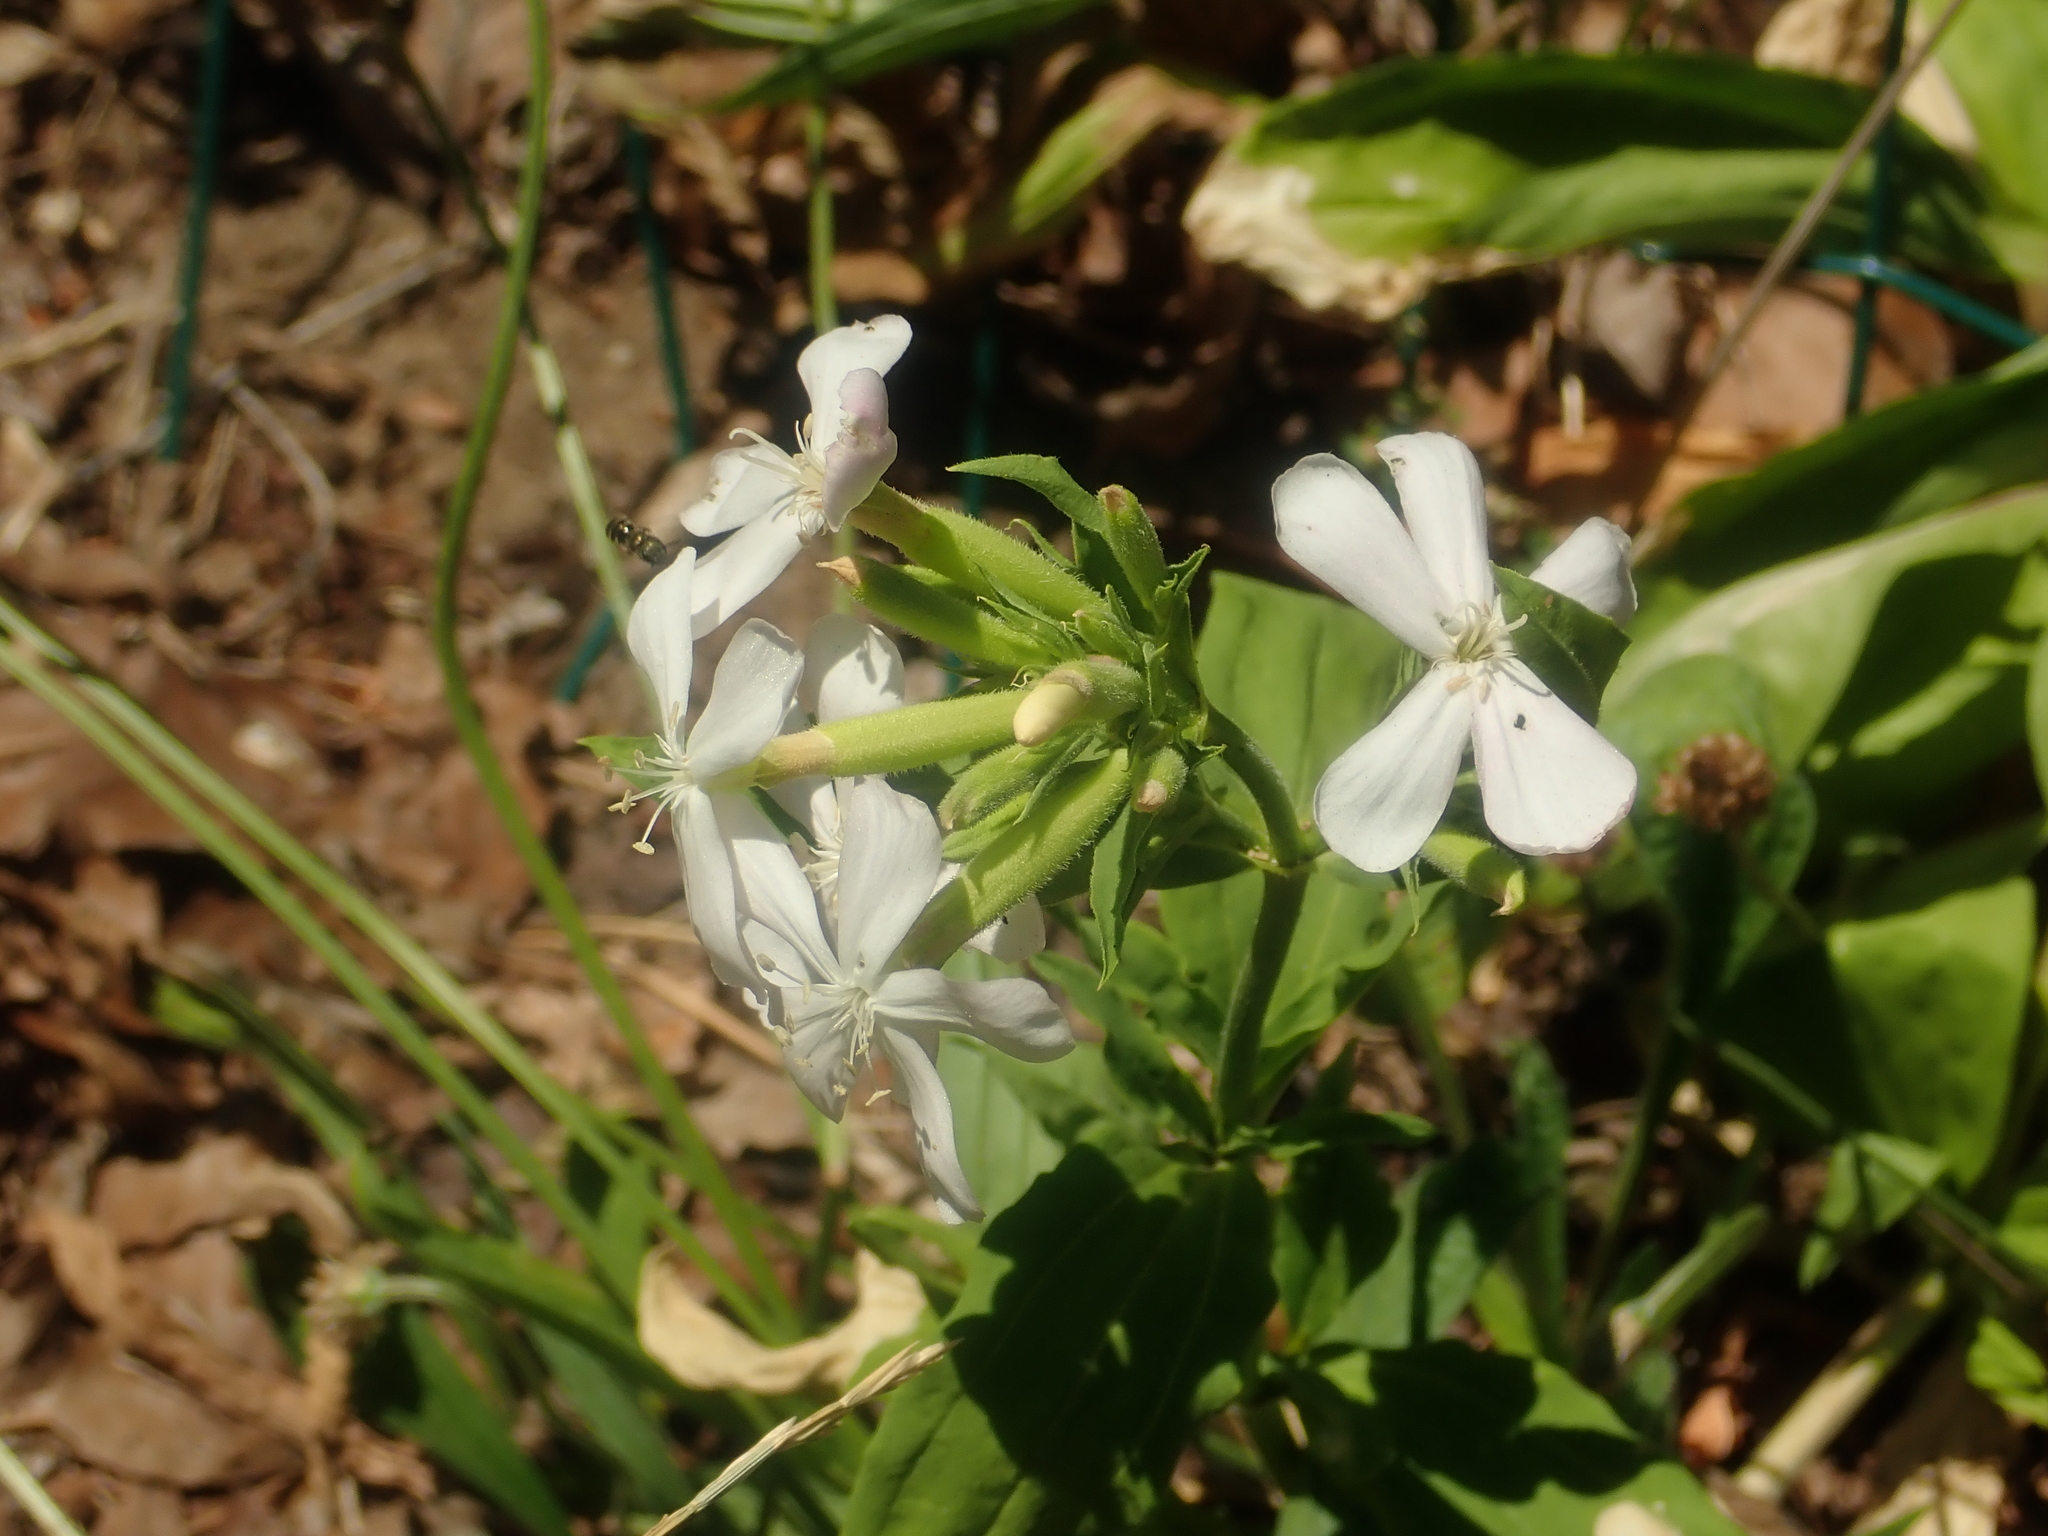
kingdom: Plantae
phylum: Tracheophyta
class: Magnoliopsida
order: Caryophyllales
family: Caryophyllaceae
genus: Saponaria
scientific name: Saponaria officinalis
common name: Soapwort
